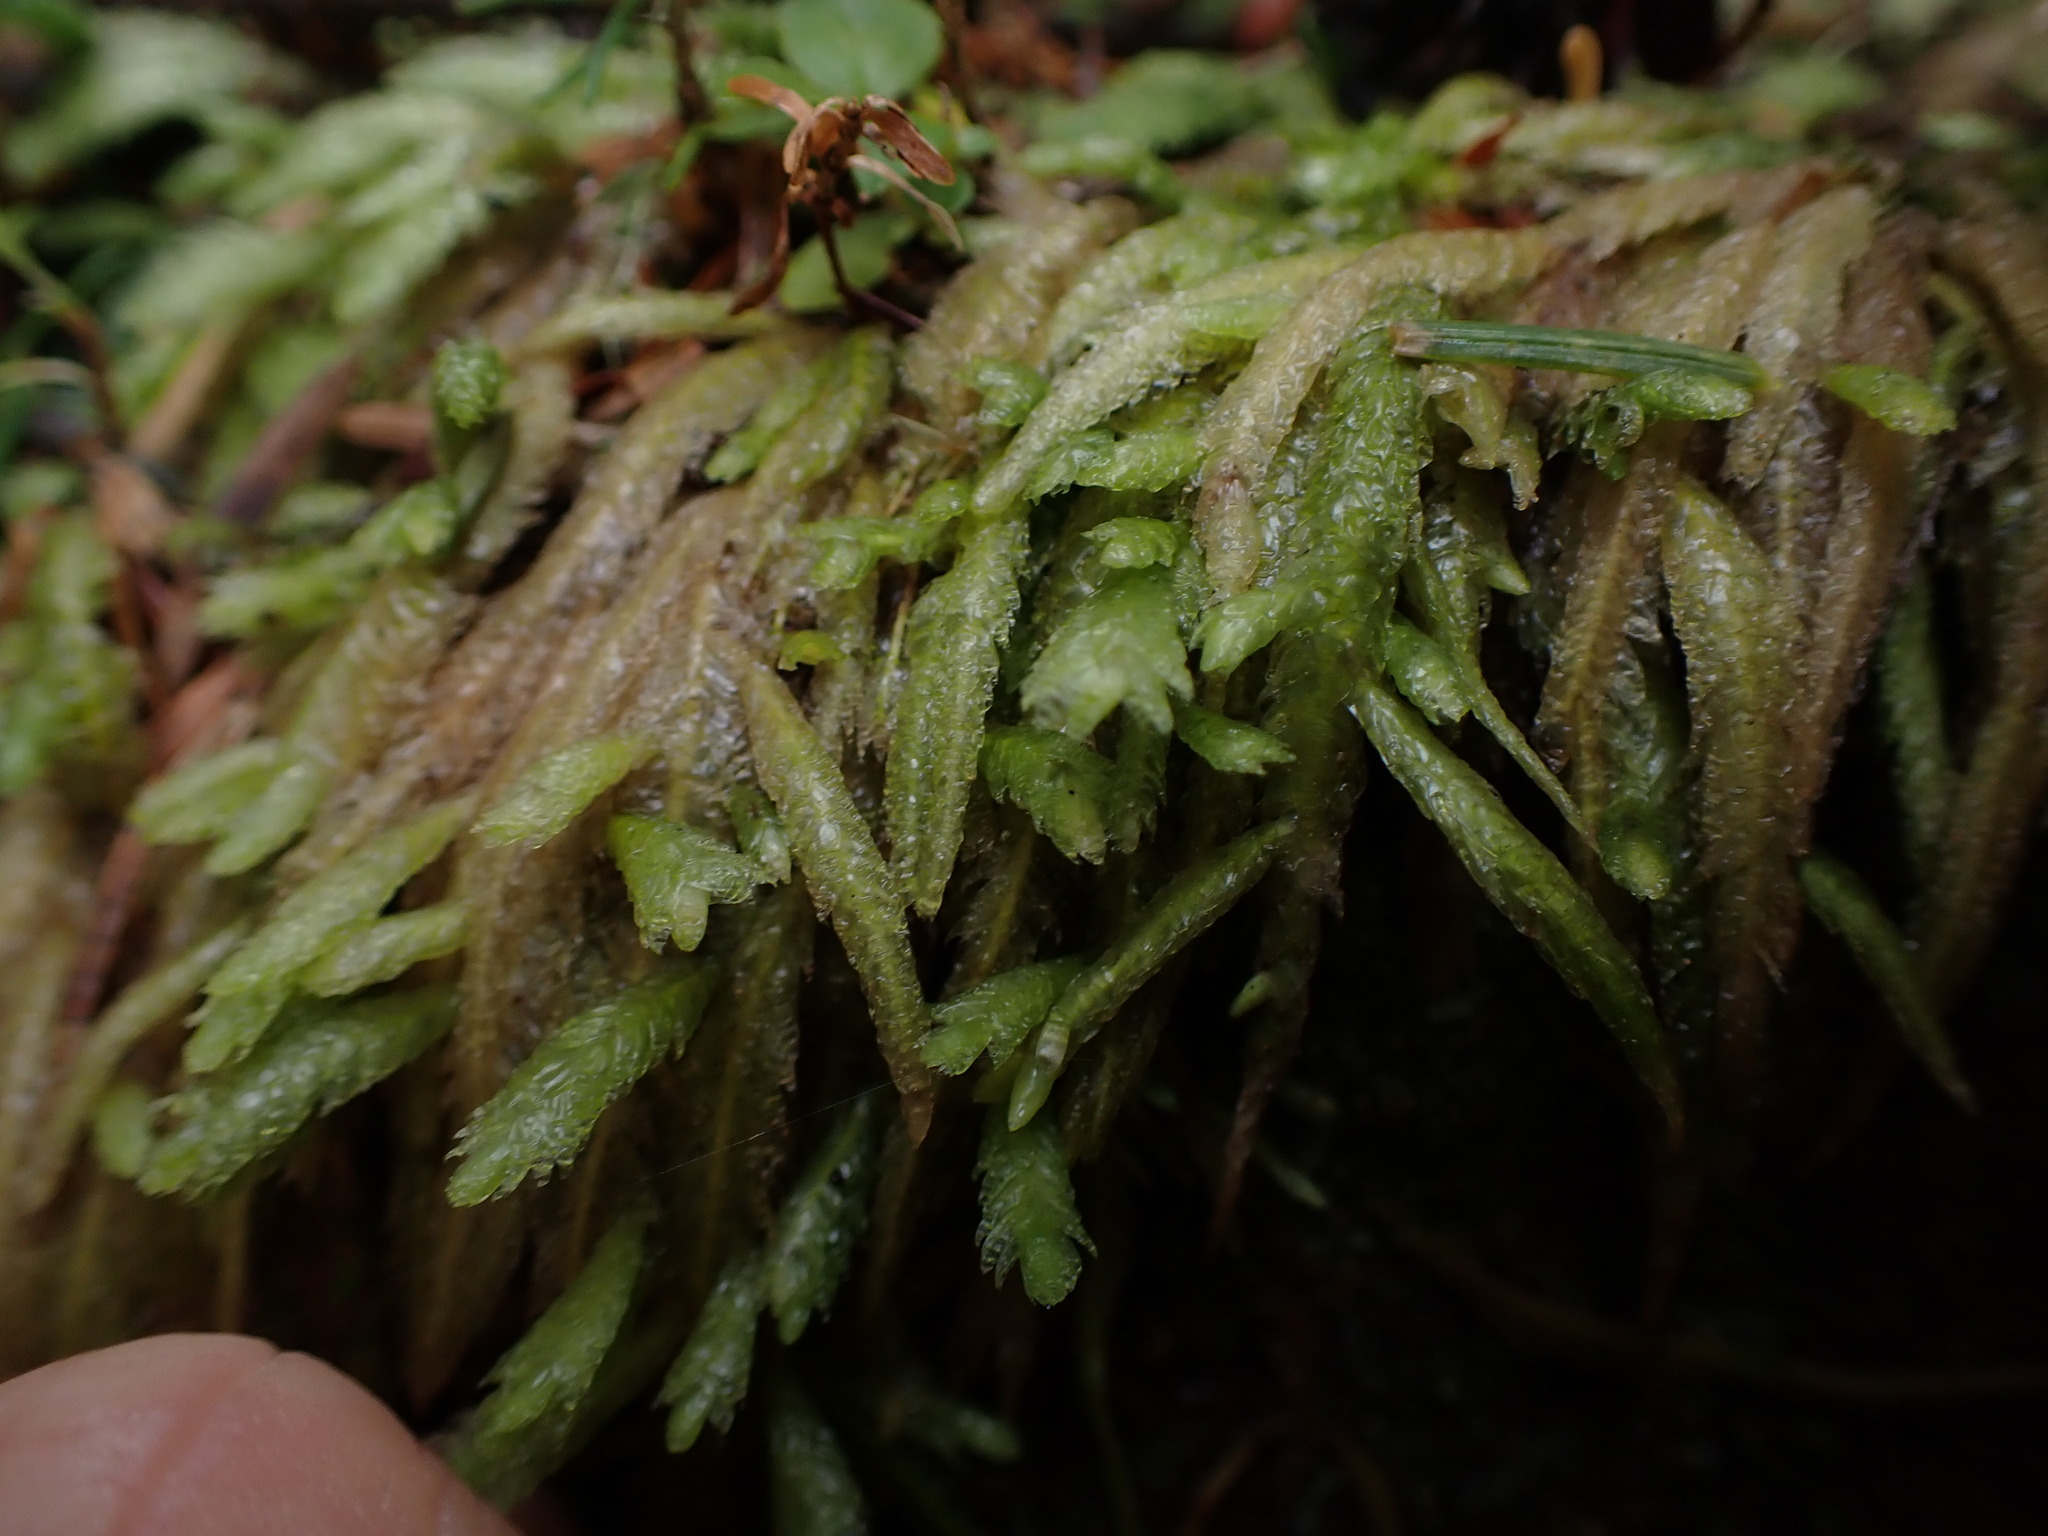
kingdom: Plantae
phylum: Bryophyta
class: Bryopsida
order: Hypnales
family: Plagiotheciaceae
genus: Plagiothecium
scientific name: Plagiothecium undulatum
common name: Waved silk-moss
